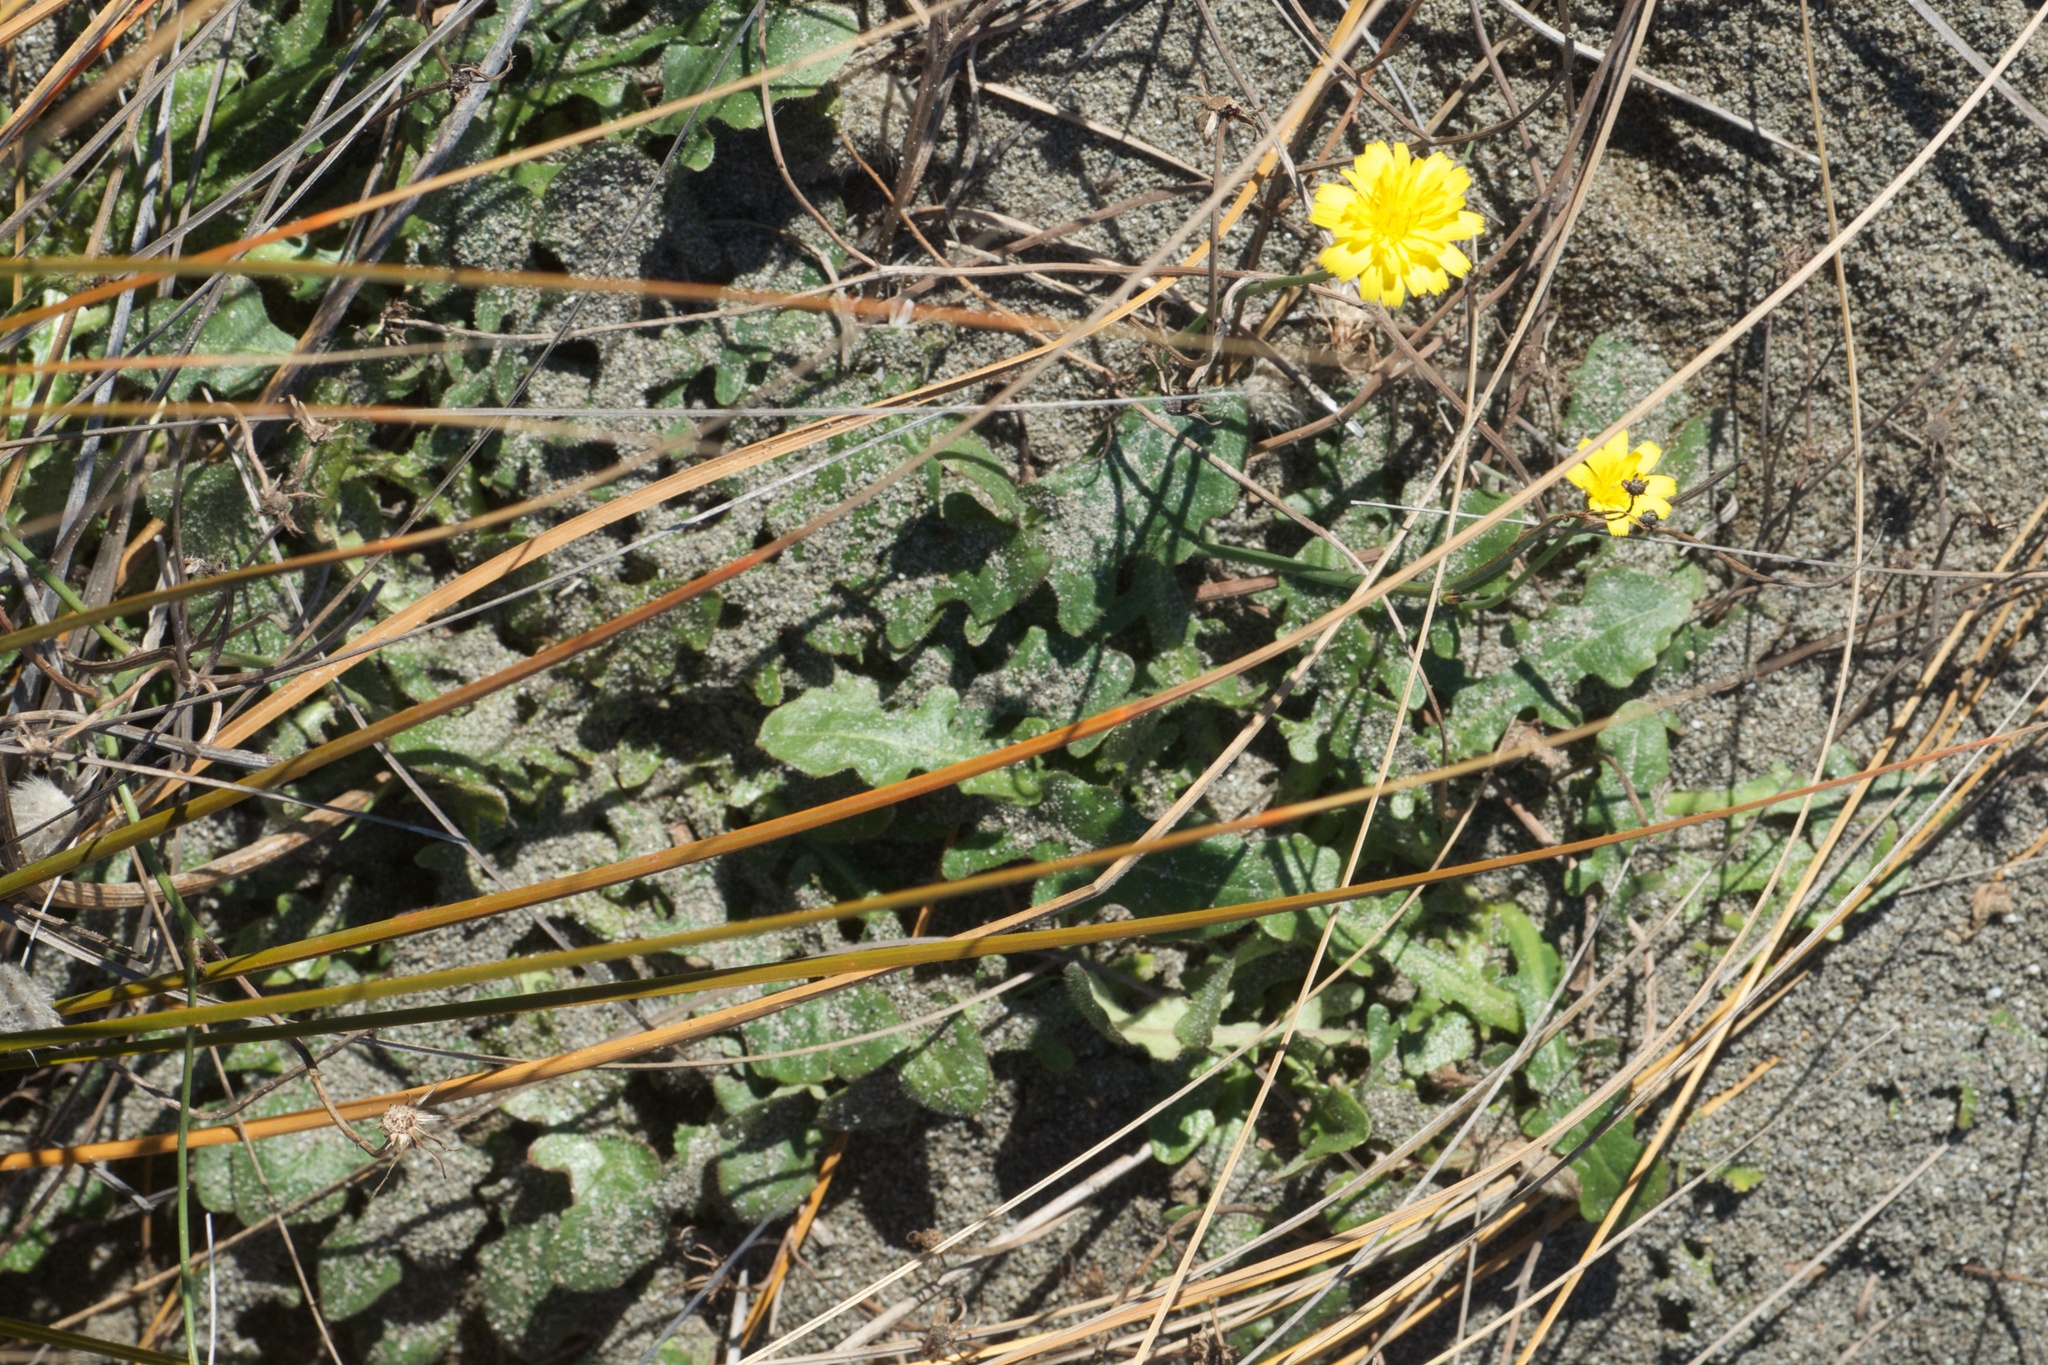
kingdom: Plantae
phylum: Tracheophyta
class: Magnoliopsida
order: Asterales
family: Asteraceae
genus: Hypochaeris
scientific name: Hypochaeris radicata
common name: Flatweed
